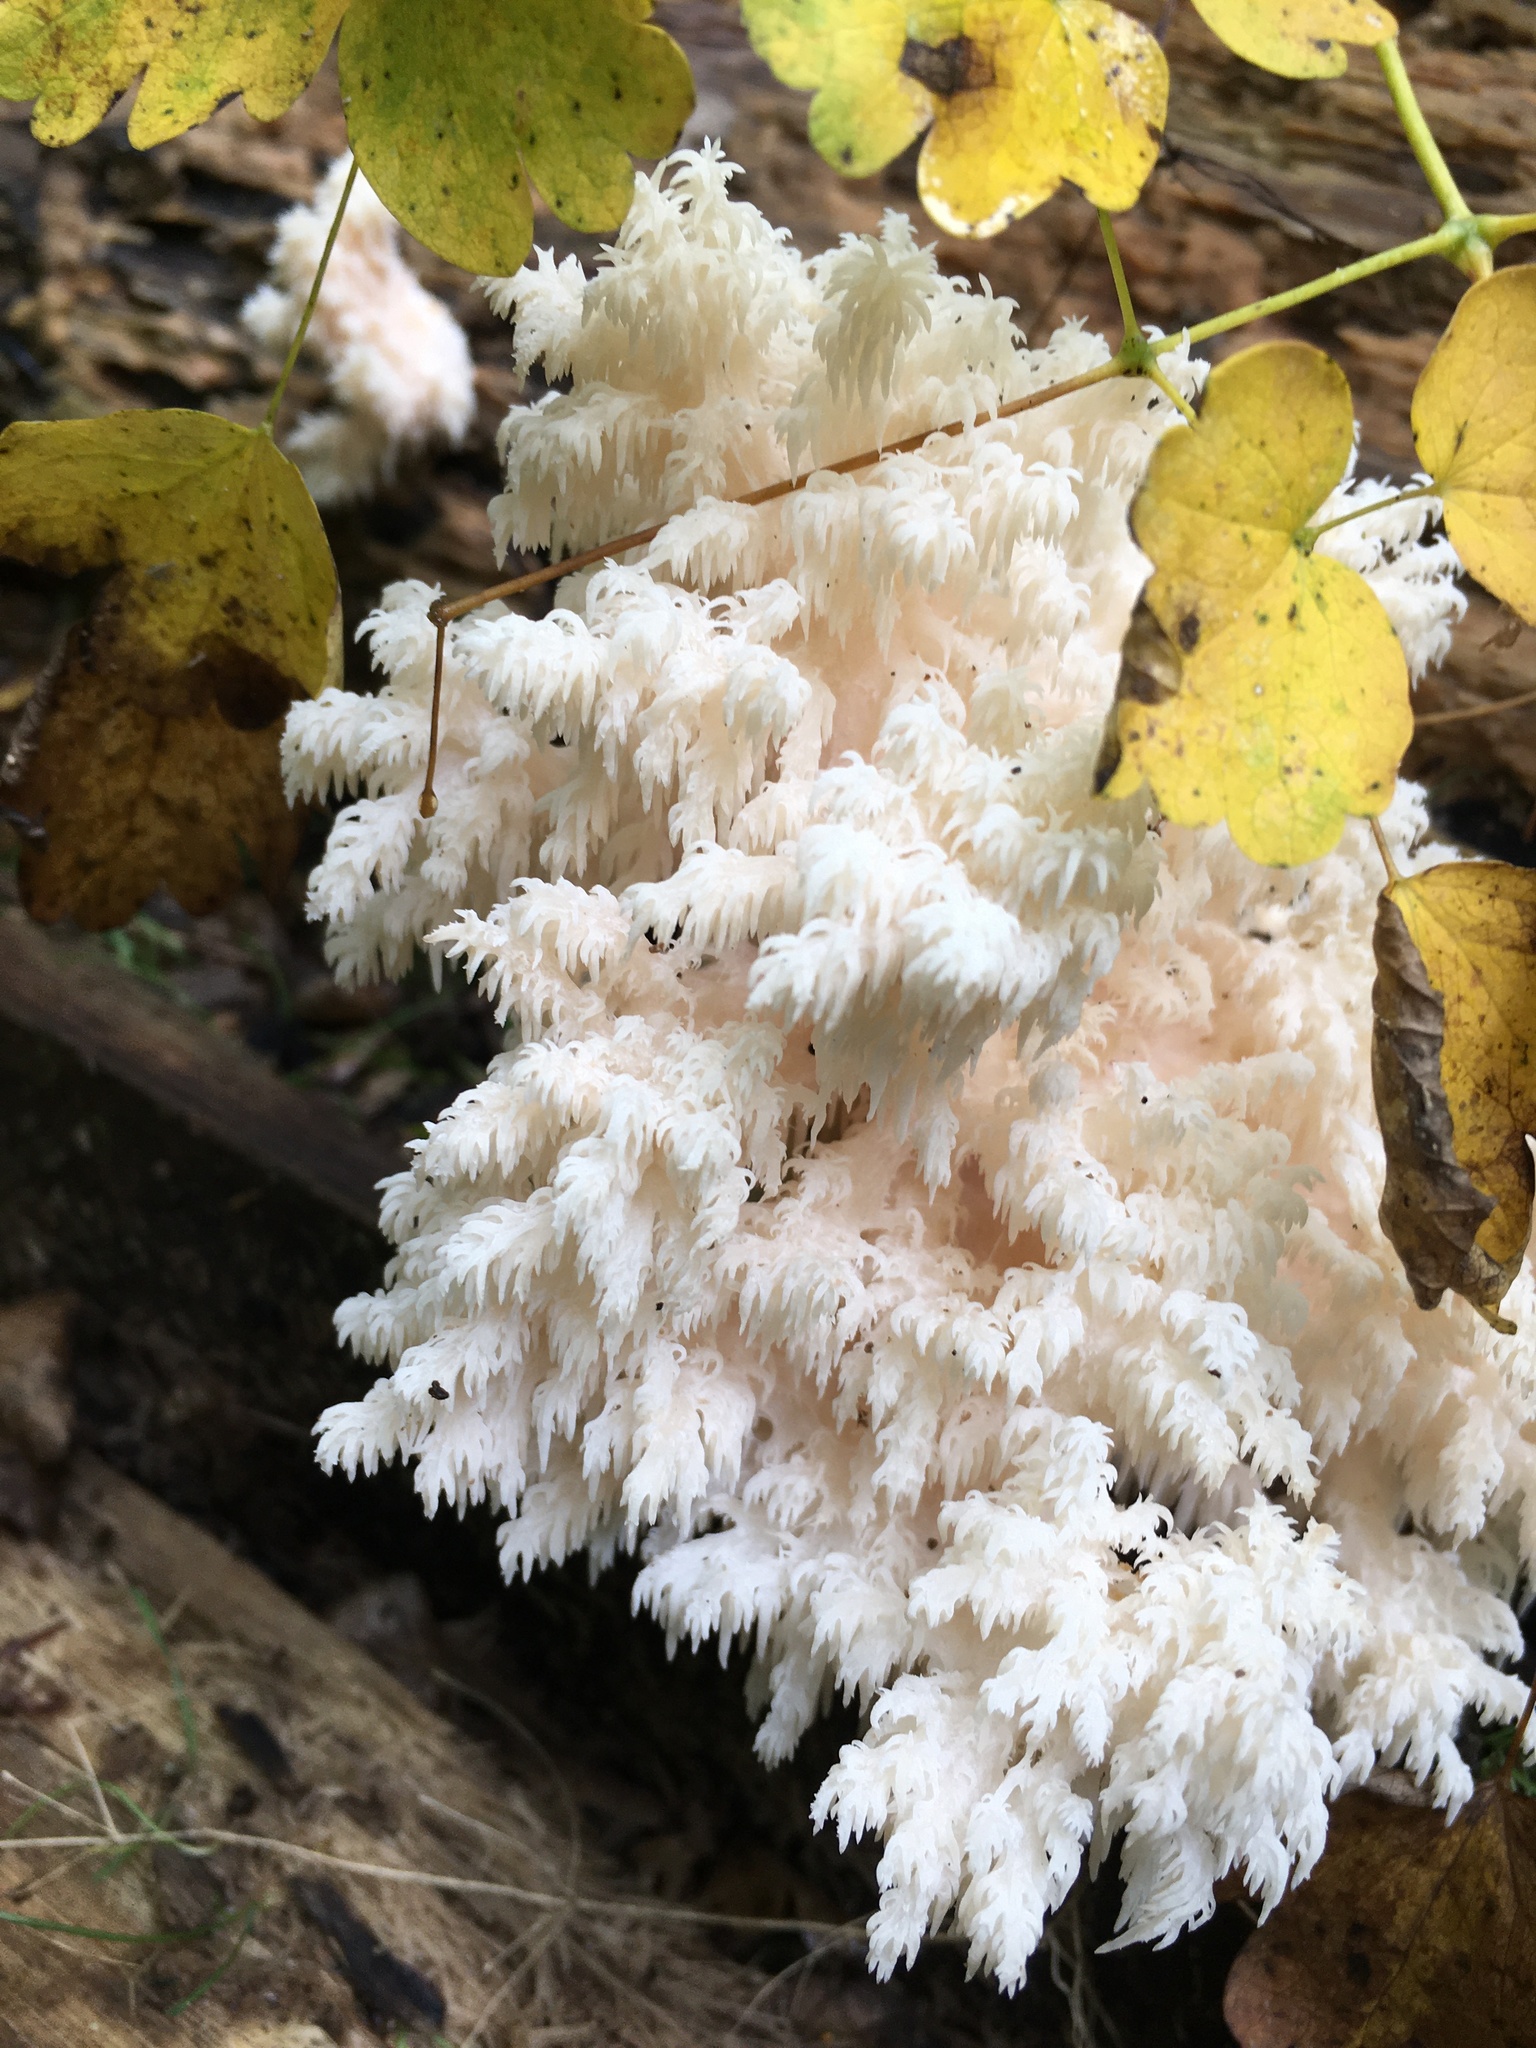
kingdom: Fungi
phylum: Basidiomycota
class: Agaricomycetes
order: Russulales
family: Hericiaceae
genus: Hericium
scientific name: Hericium coralloides
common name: Coral tooth
